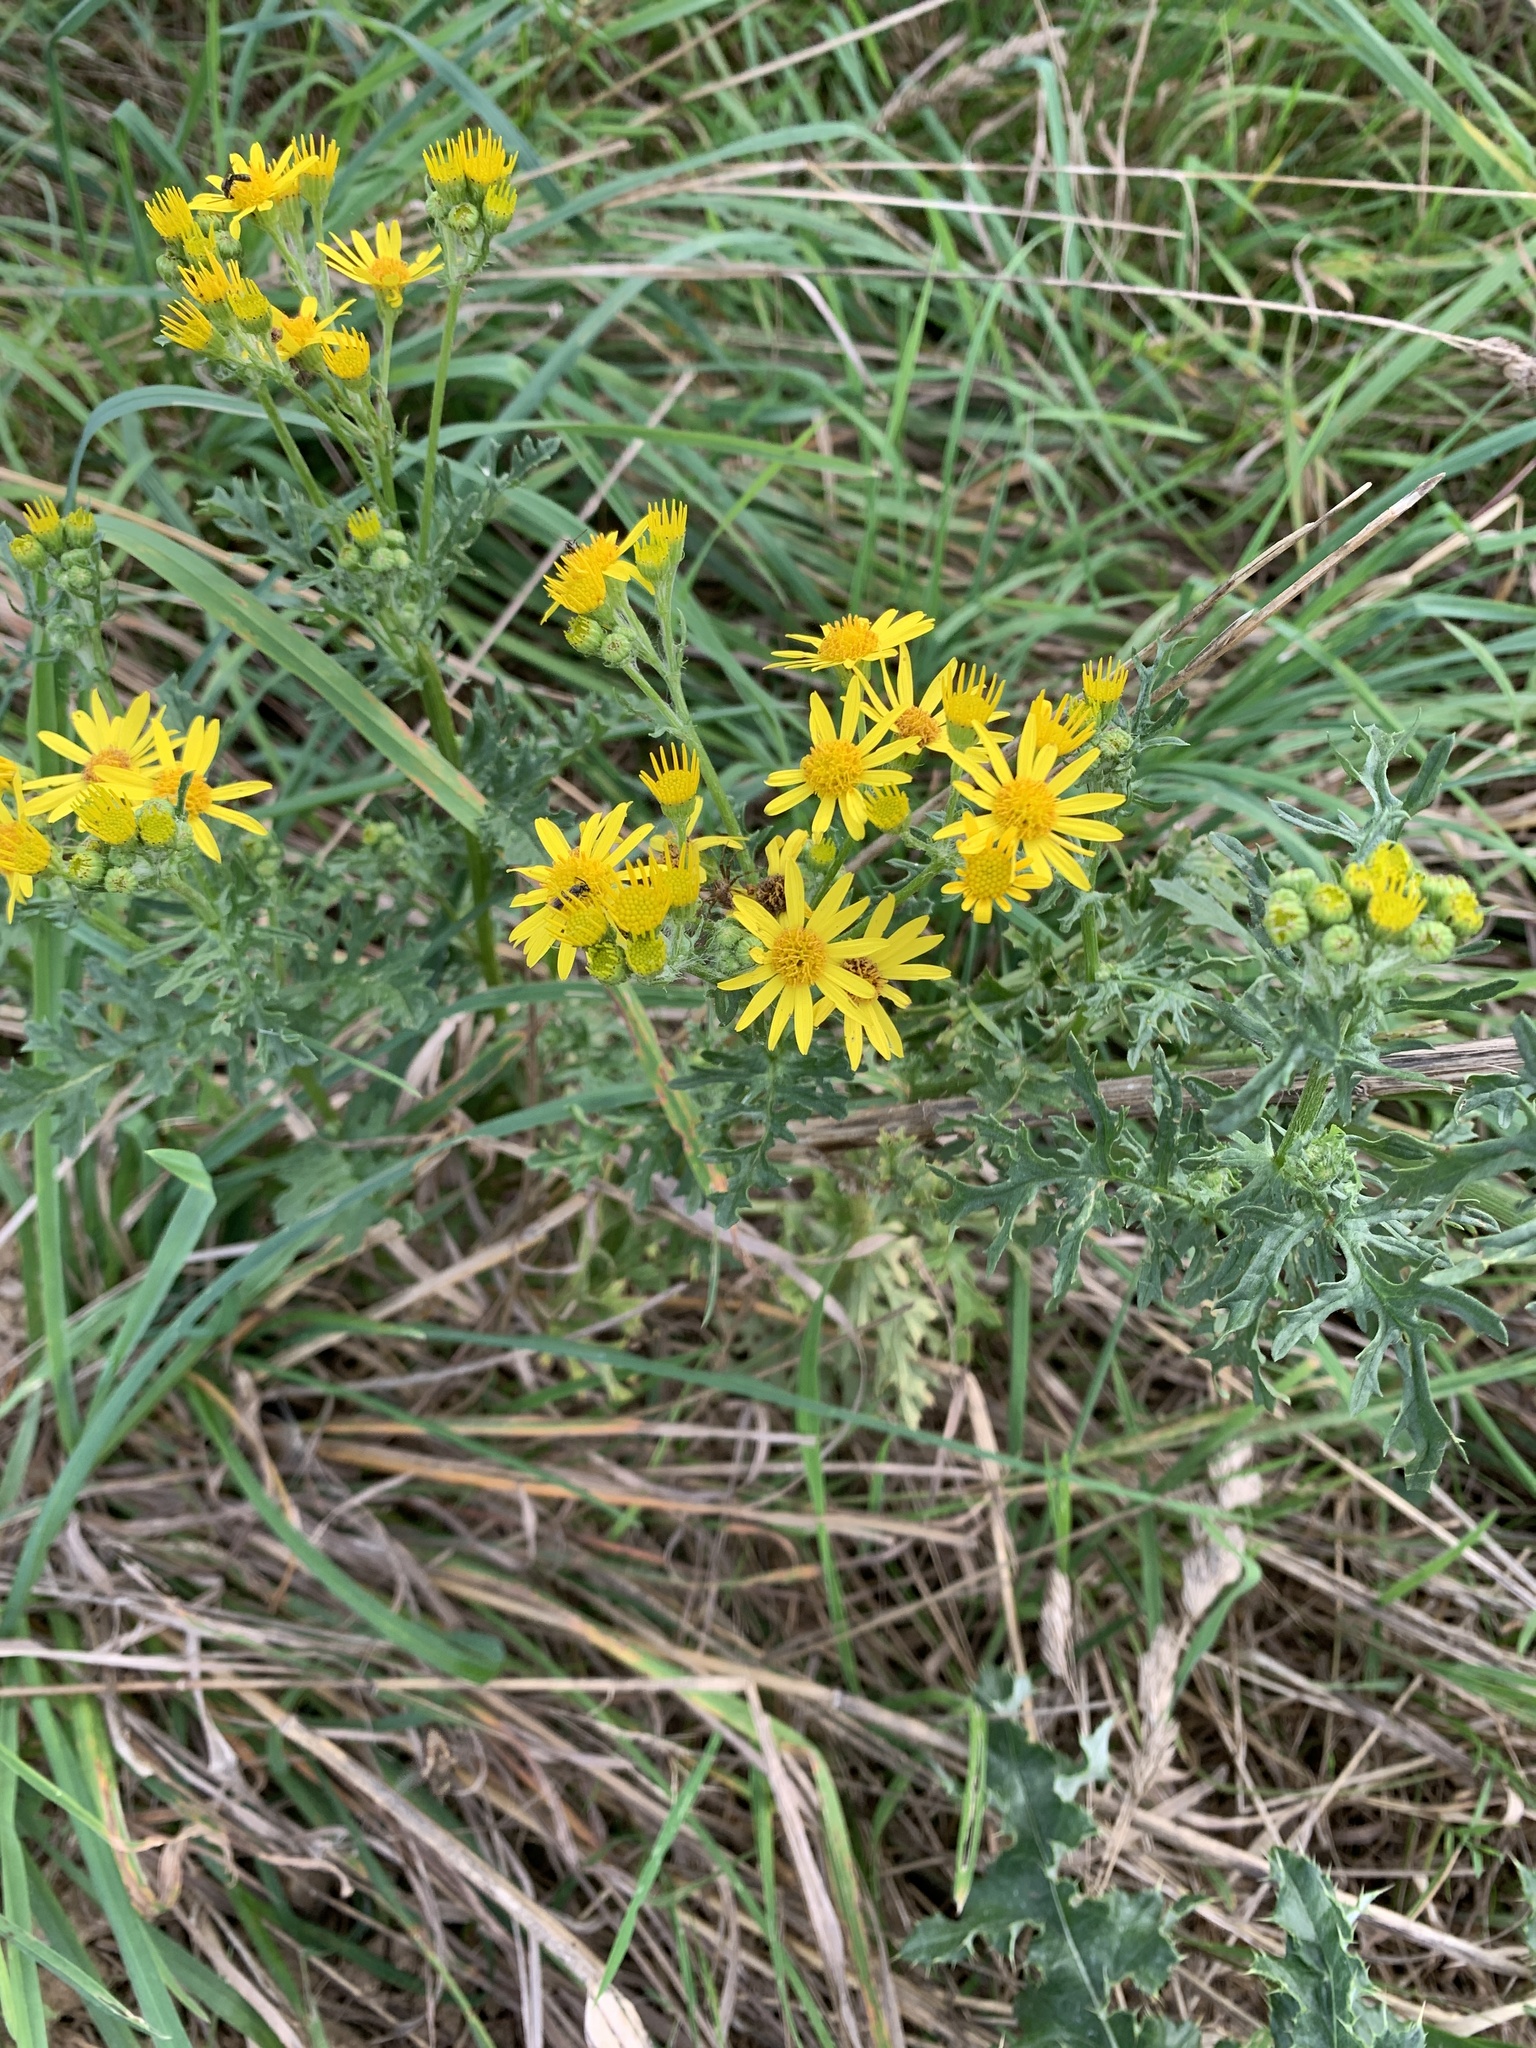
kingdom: Plantae
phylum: Tracheophyta
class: Magnoliopsida
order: Asterales
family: Asteraceae
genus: Jacobaea
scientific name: Jacobaea vulgaris
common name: Stinking willie
